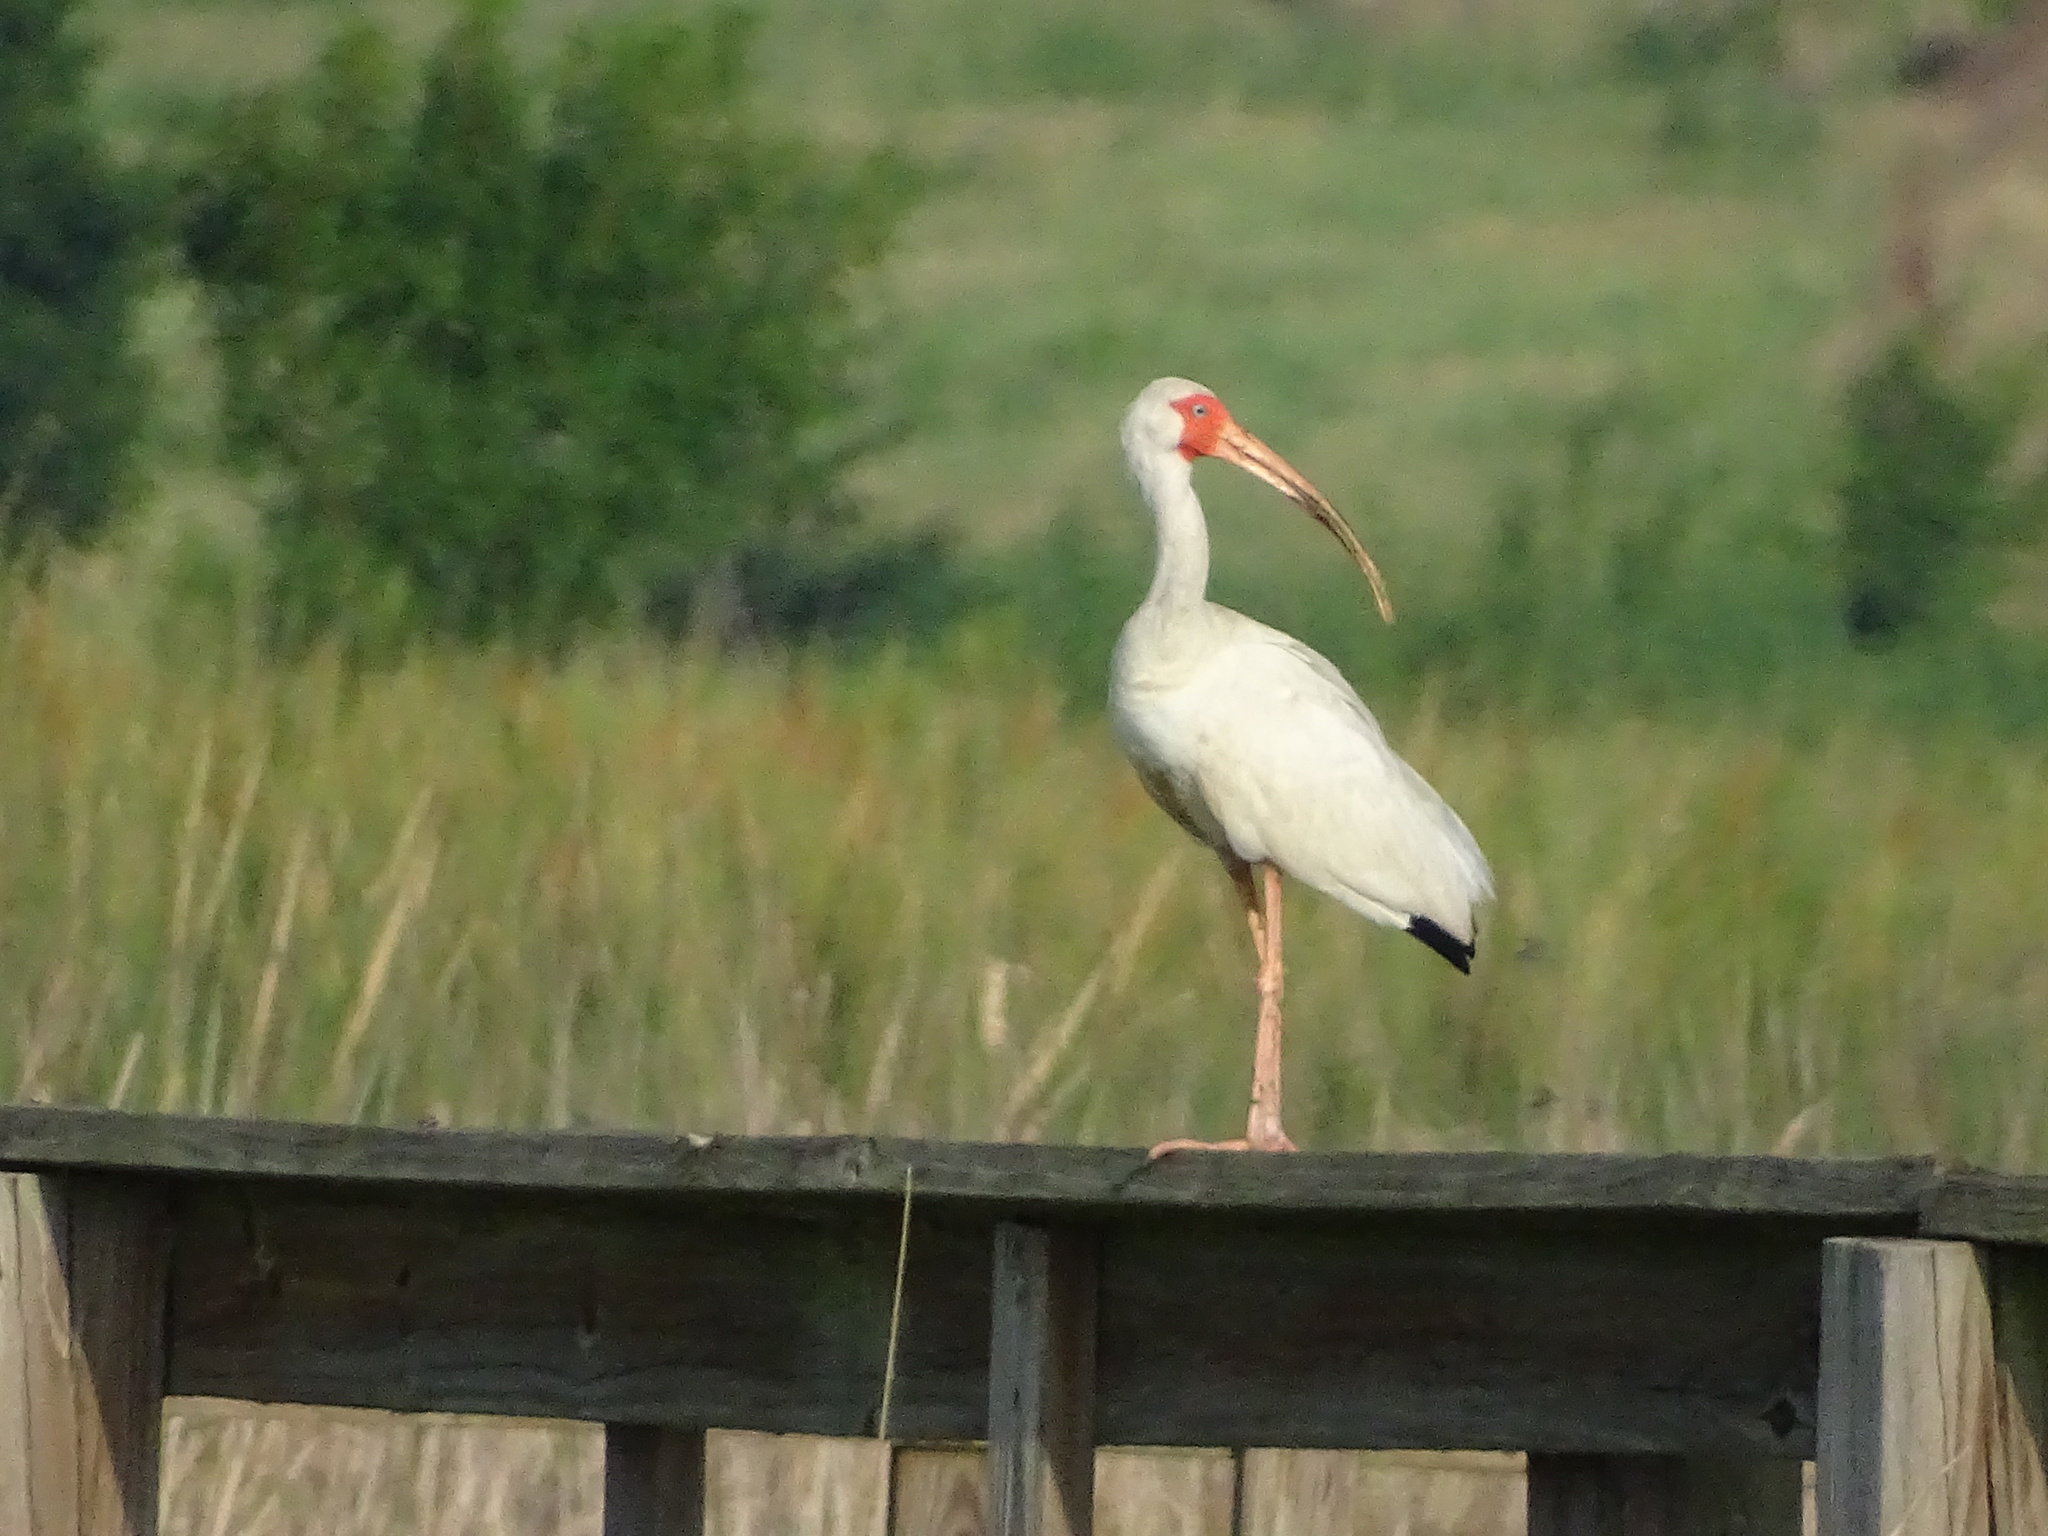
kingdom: Animalia
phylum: Chordata
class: Aves
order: Pelecaniformes
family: Threskiornithidae
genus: Eudocimus
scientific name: Eudocimus albus
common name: White ibis
